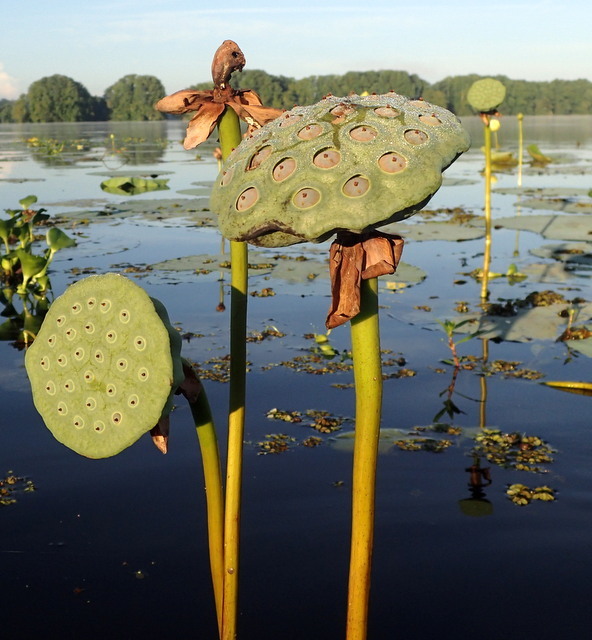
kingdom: Plantae
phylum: Tracheophyta
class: Magnoliopsida
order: Proteales
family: Nelumbonaceae
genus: Nelumbo
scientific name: Nelumbo lutea
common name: American lotus
